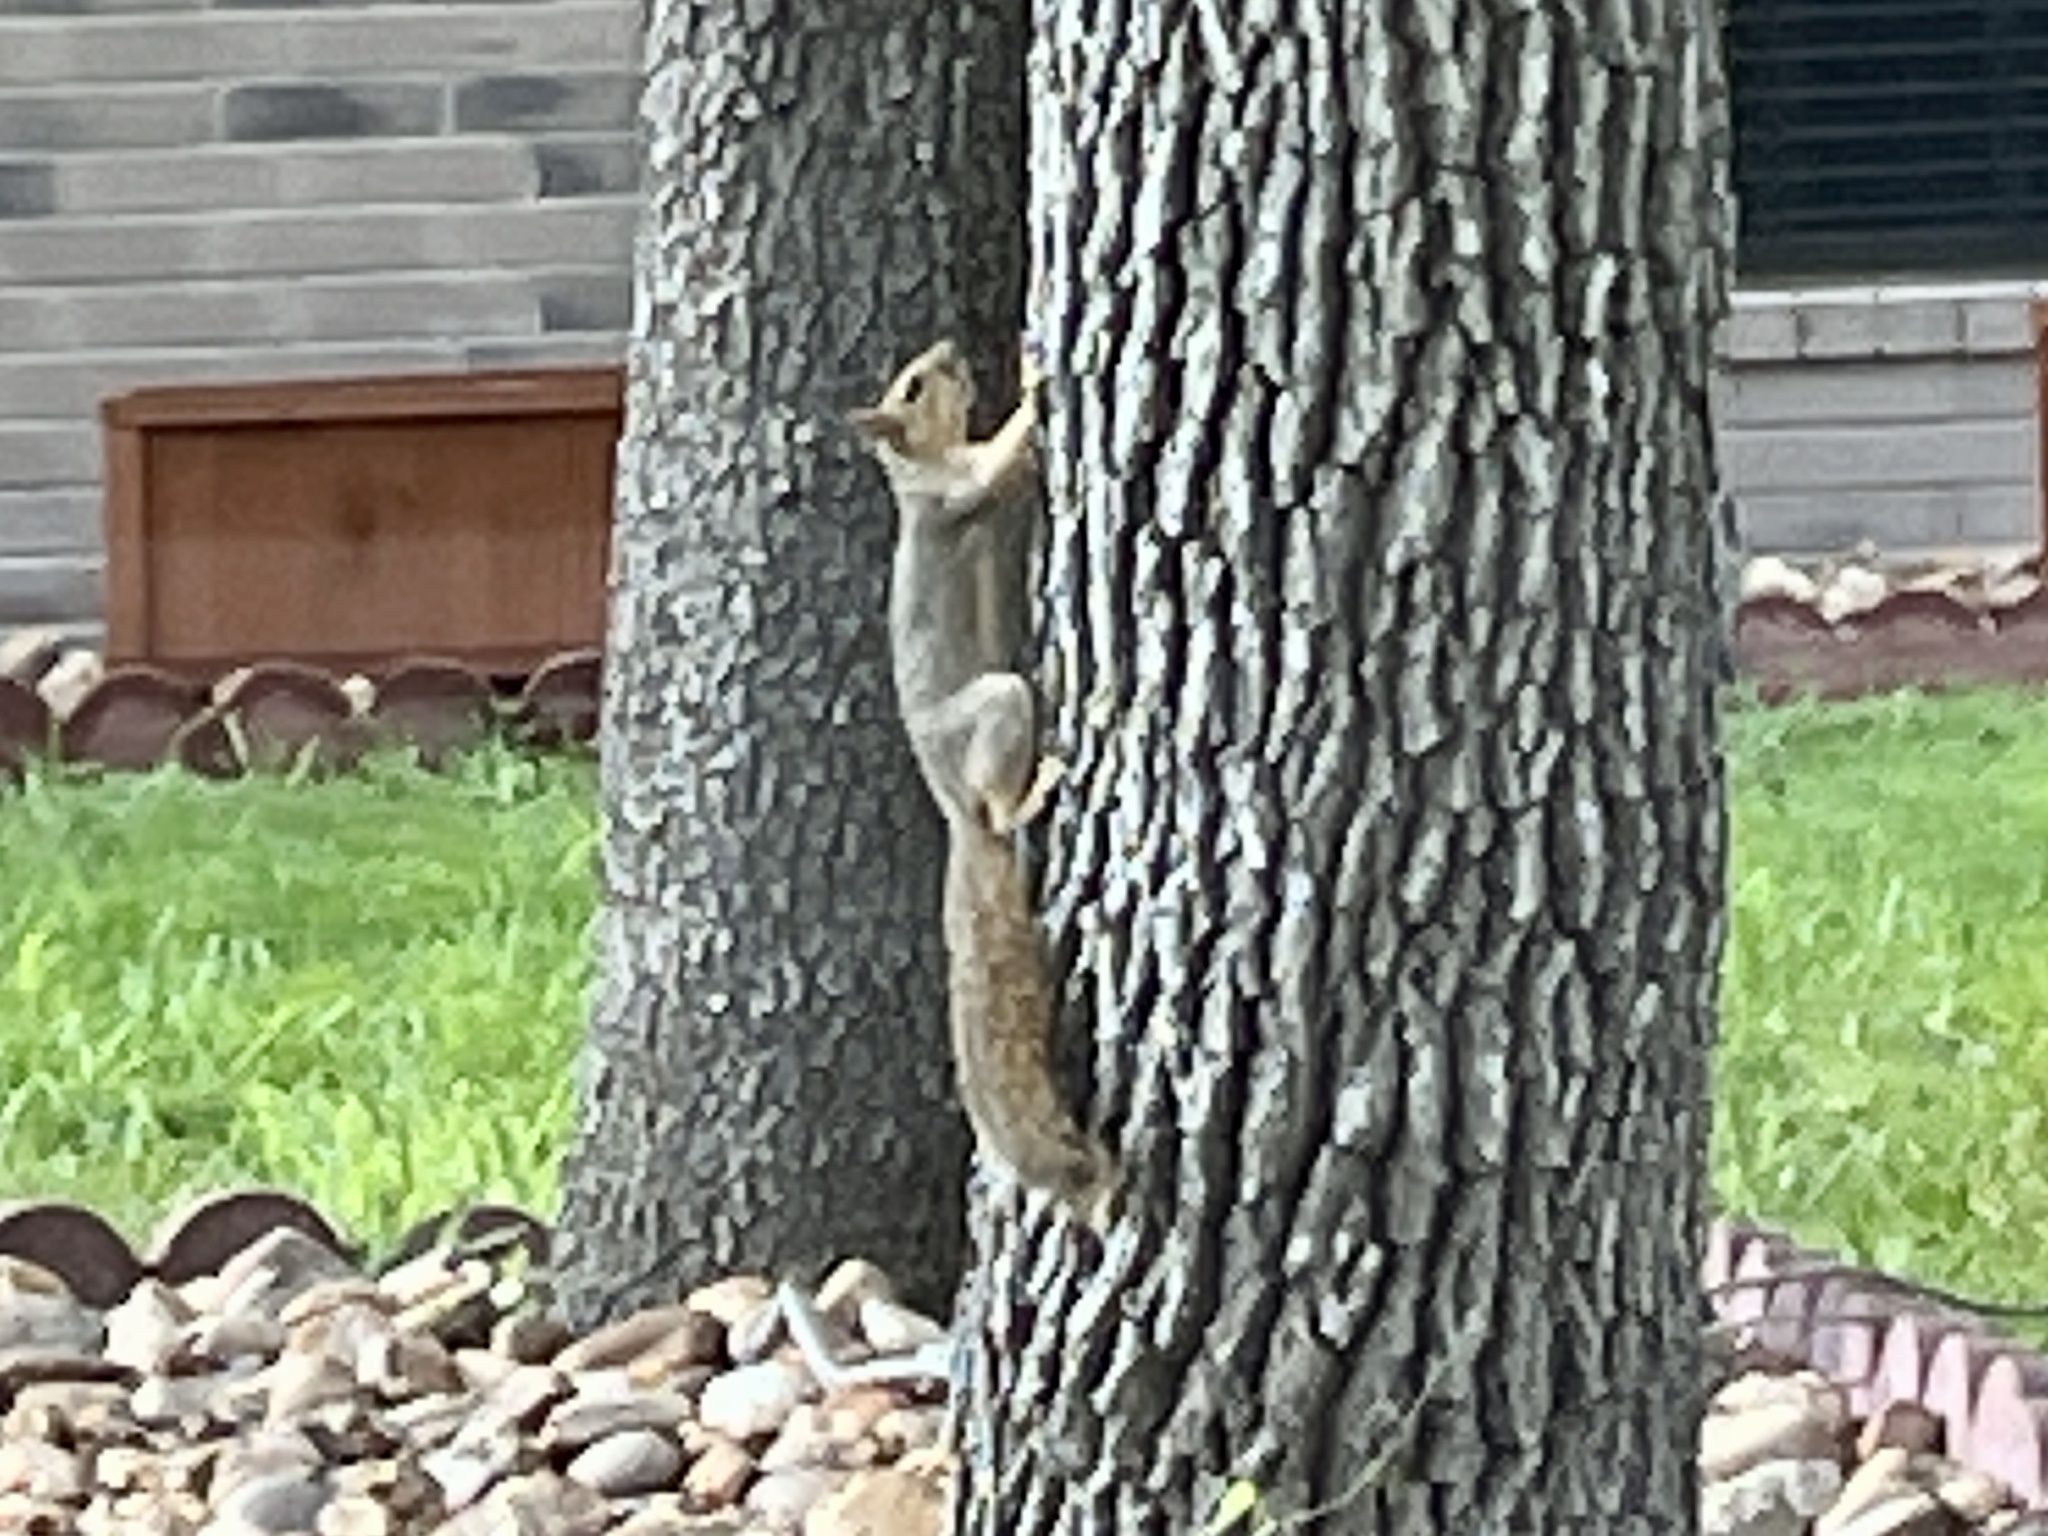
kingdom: Animalia
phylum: Chordata
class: Mammalia
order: Rodentia
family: Sciuridae
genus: Sciurus
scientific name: Sciurus niger
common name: Fox squirrel
